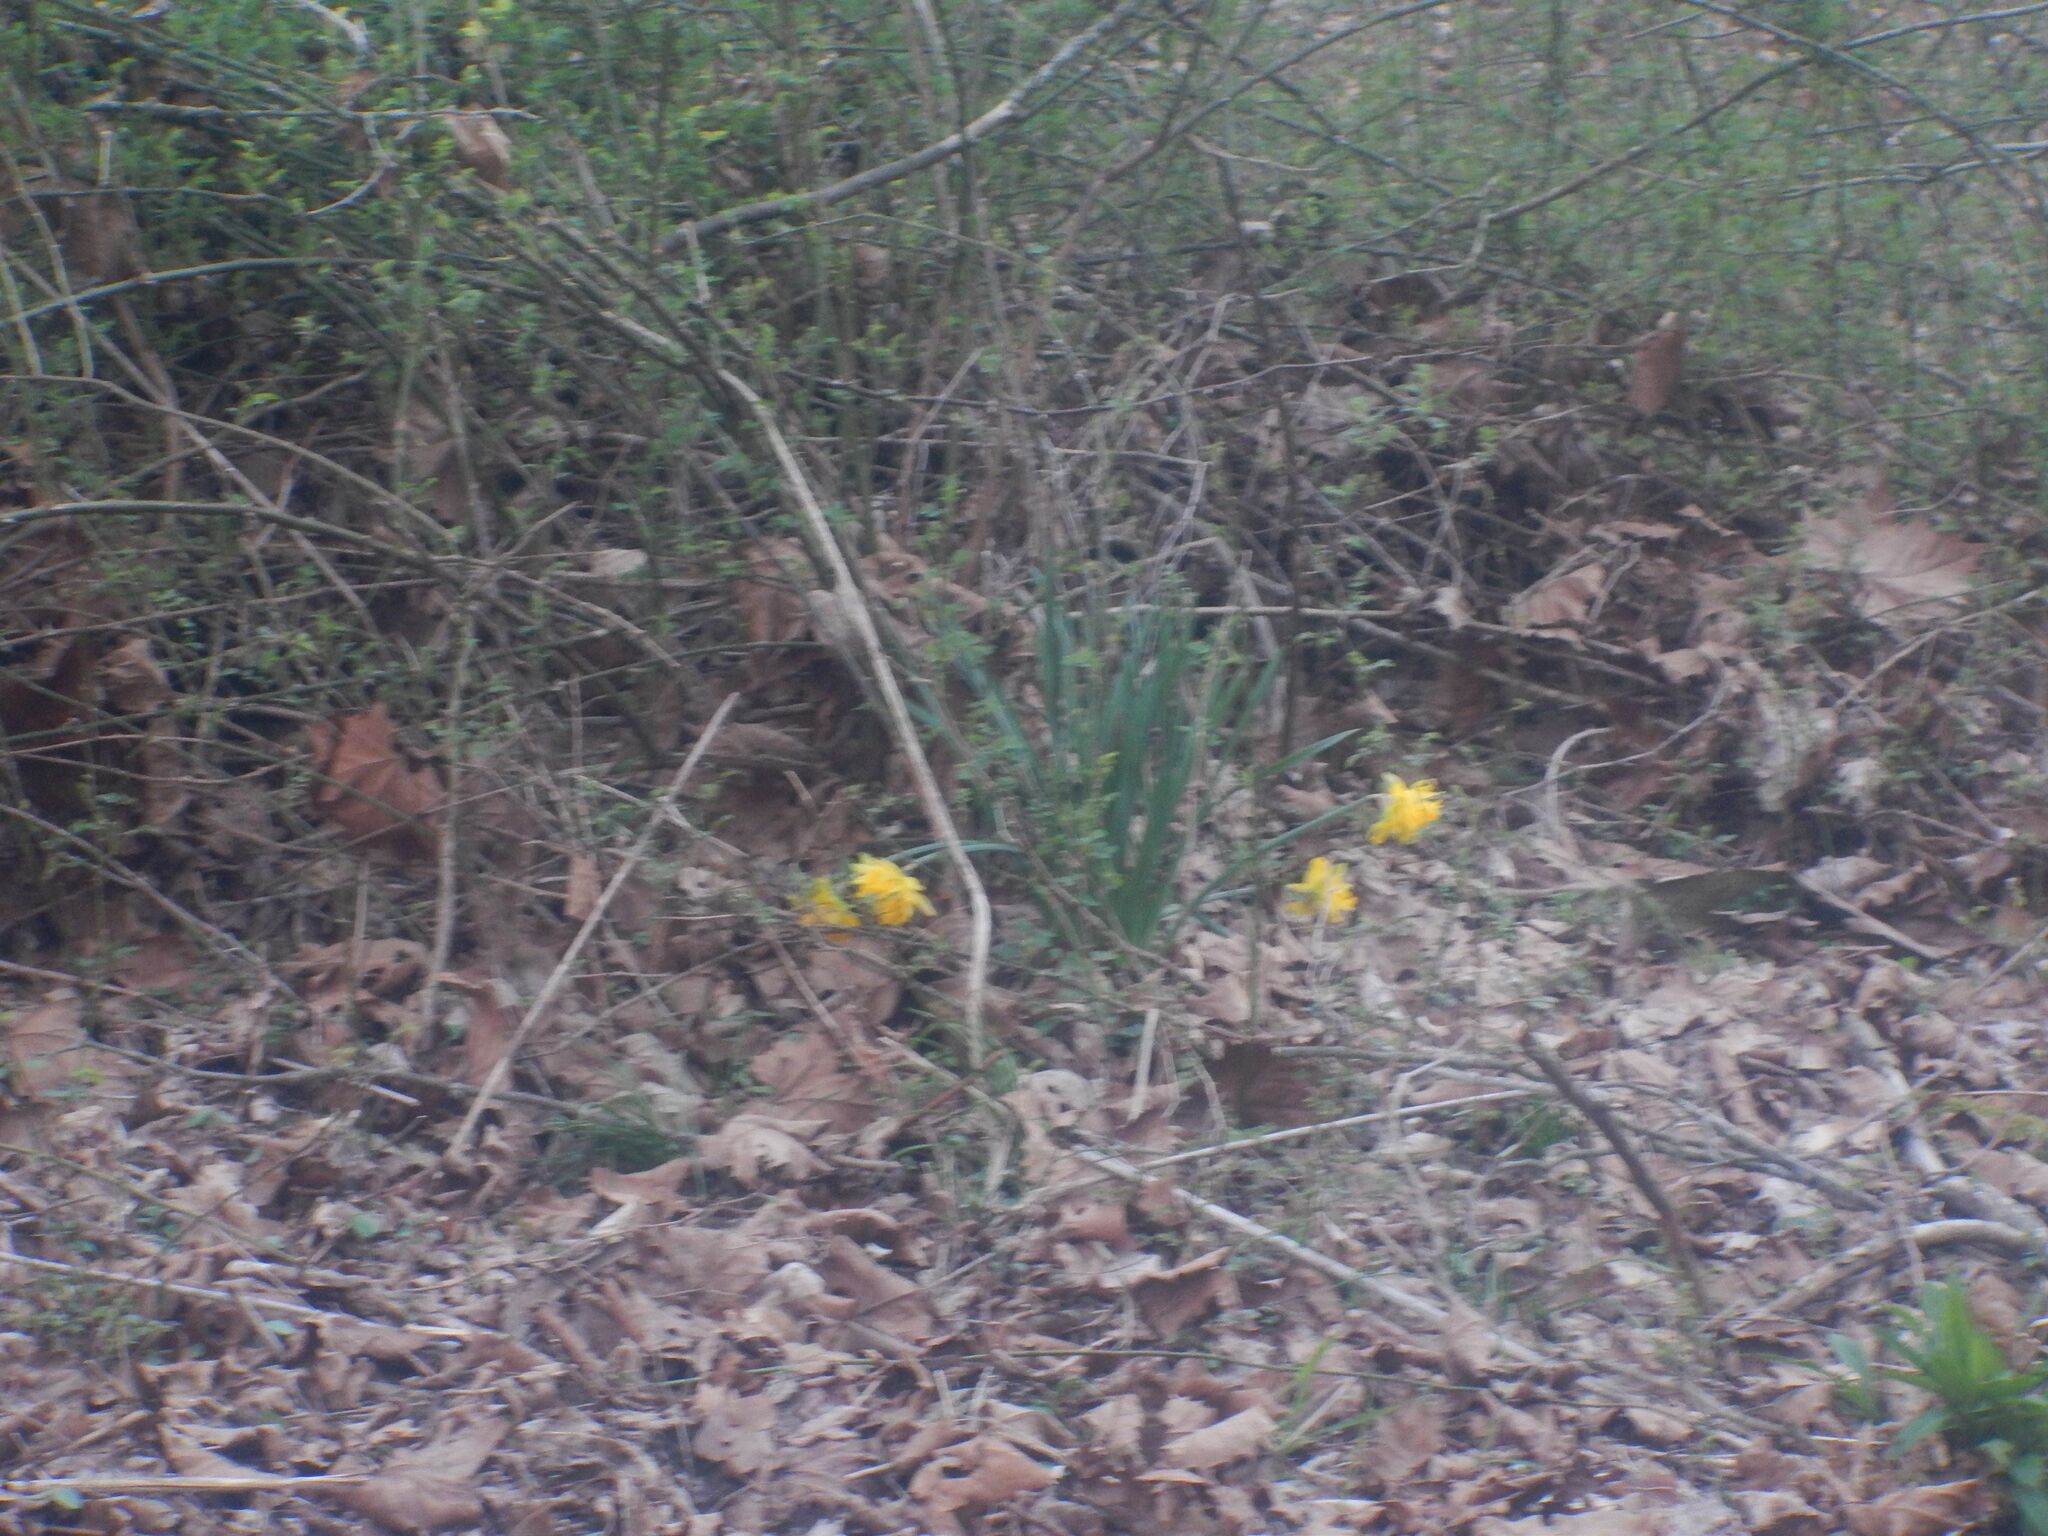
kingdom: Plantae
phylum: Tracheophyta
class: Liliopsida
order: Asparagales
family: Amaryllidaceae
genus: Narcissus
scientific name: Narcissus pseudonarcissus
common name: Daffodil
